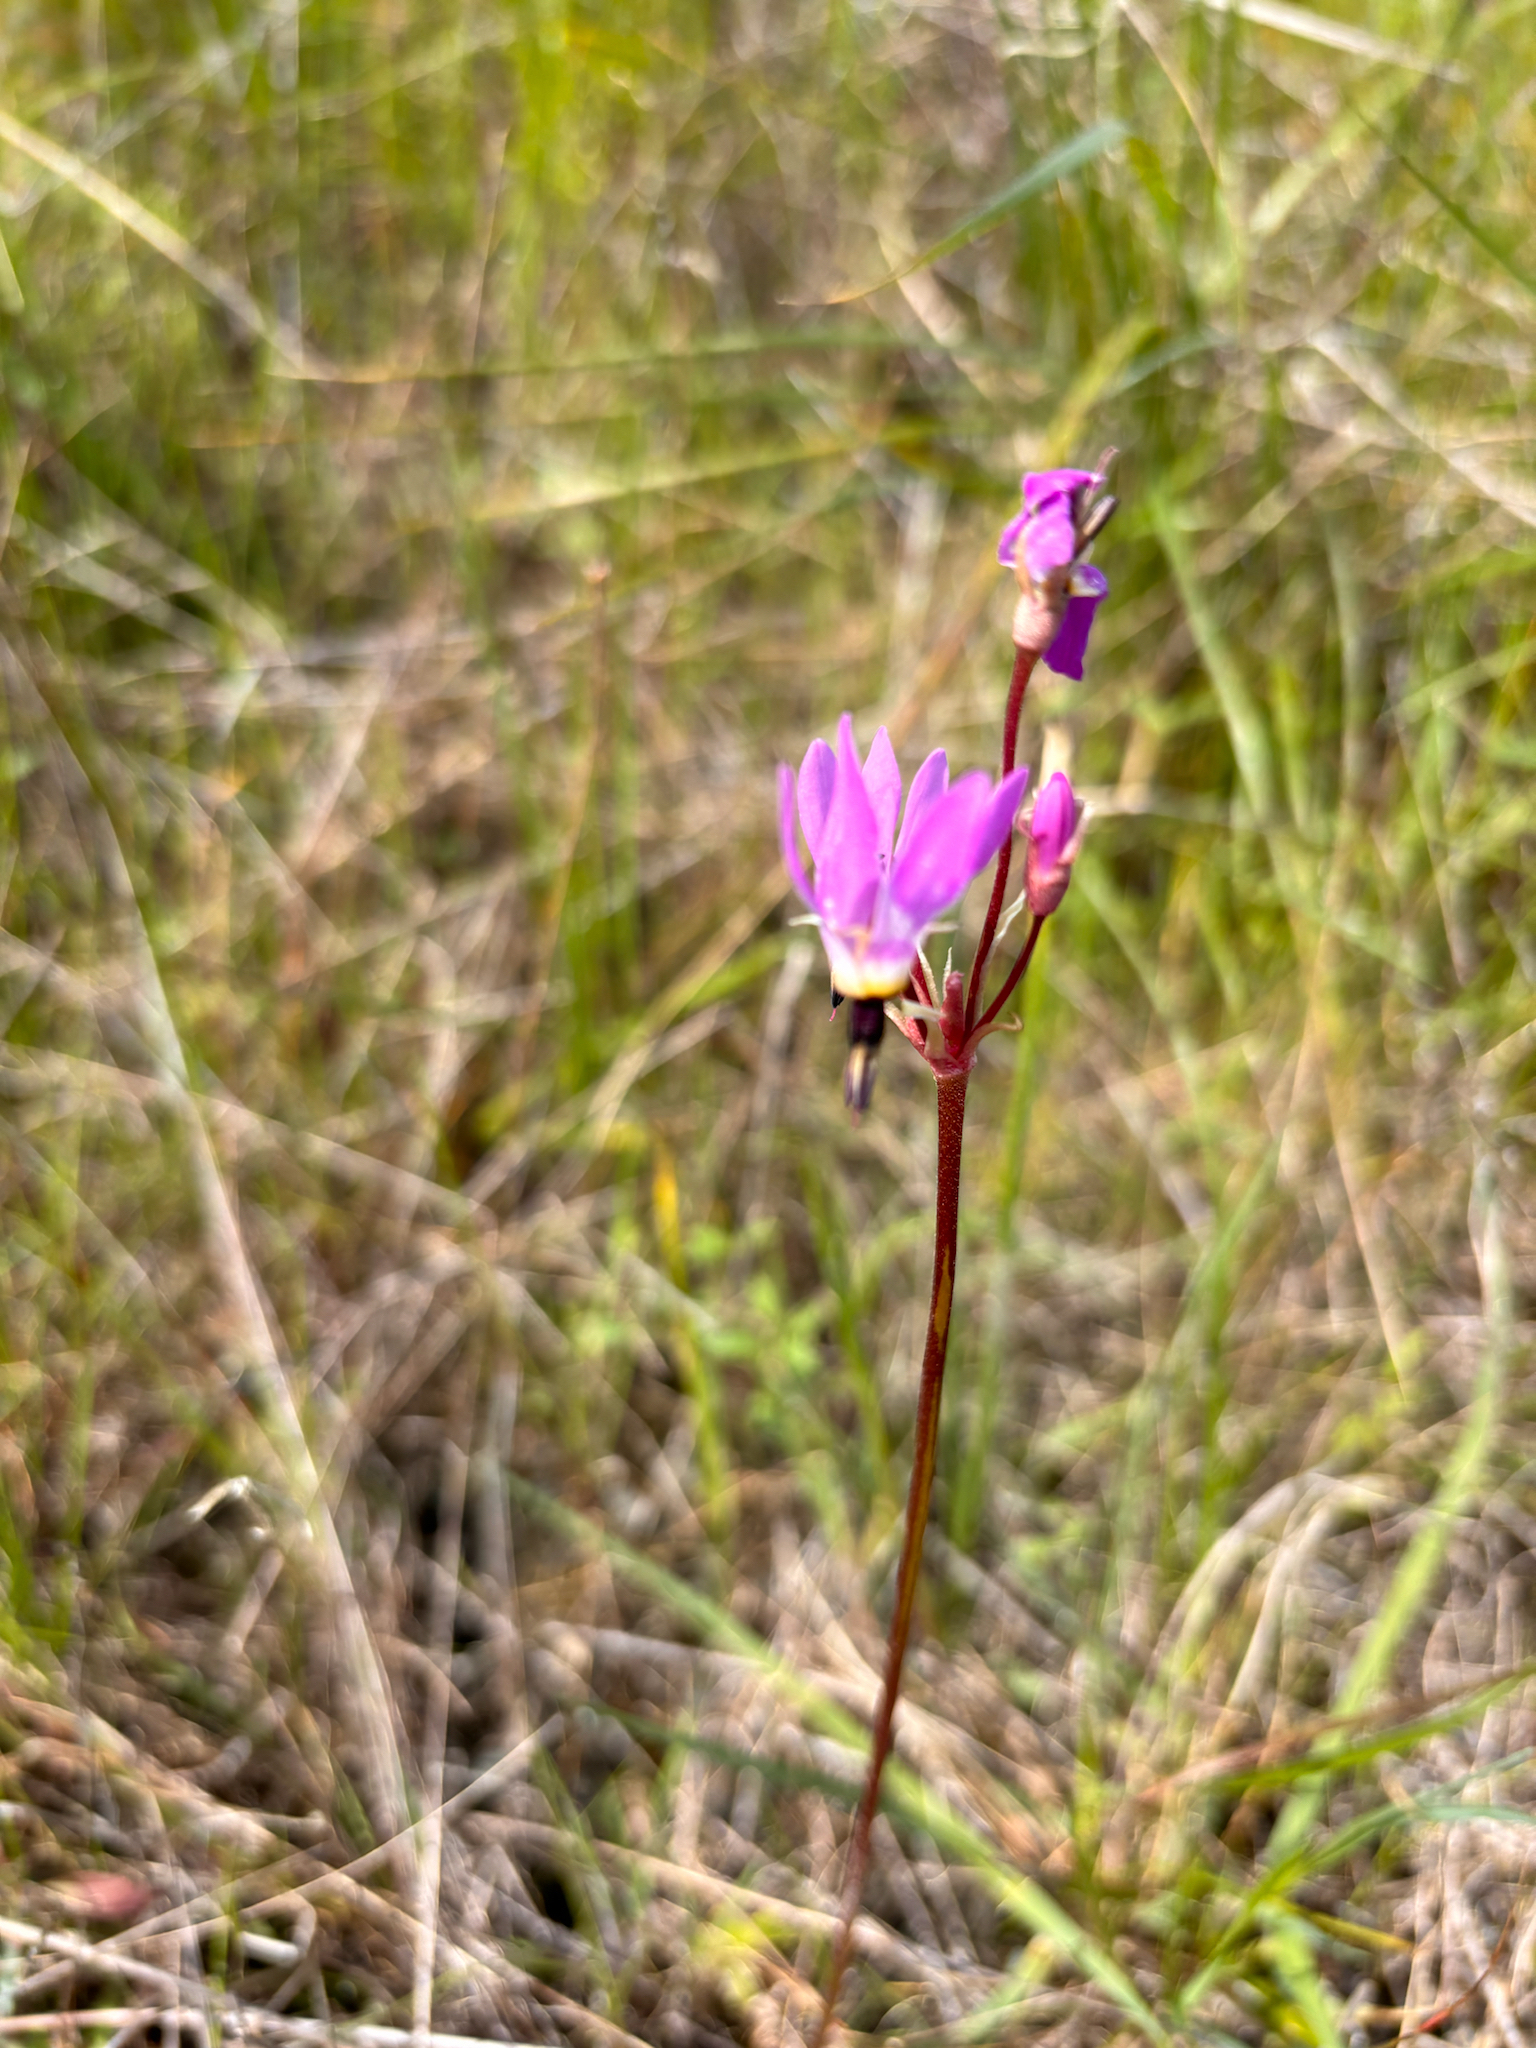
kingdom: Plantae
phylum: Tracheophyta
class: Magnoliopsida
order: Ericales
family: Primulaceae
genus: Dodecatheon
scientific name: Dodecatheon hendersonii
